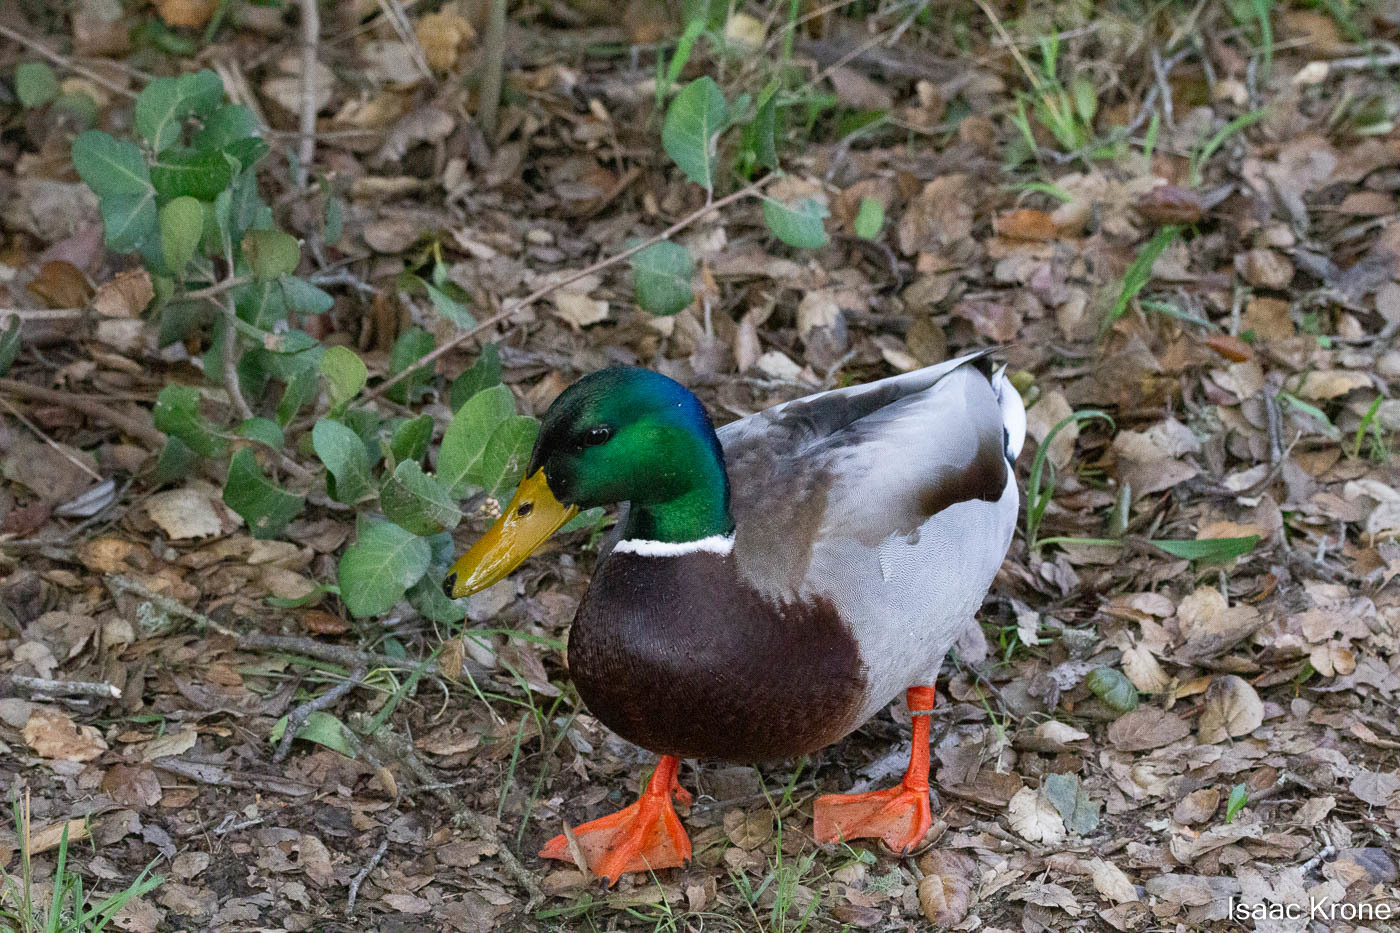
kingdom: Animalia
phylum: Chordata
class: Aves
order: Anseriformes
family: Anatidae
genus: Anas
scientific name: Anas platyrhynchos
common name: Mallard
